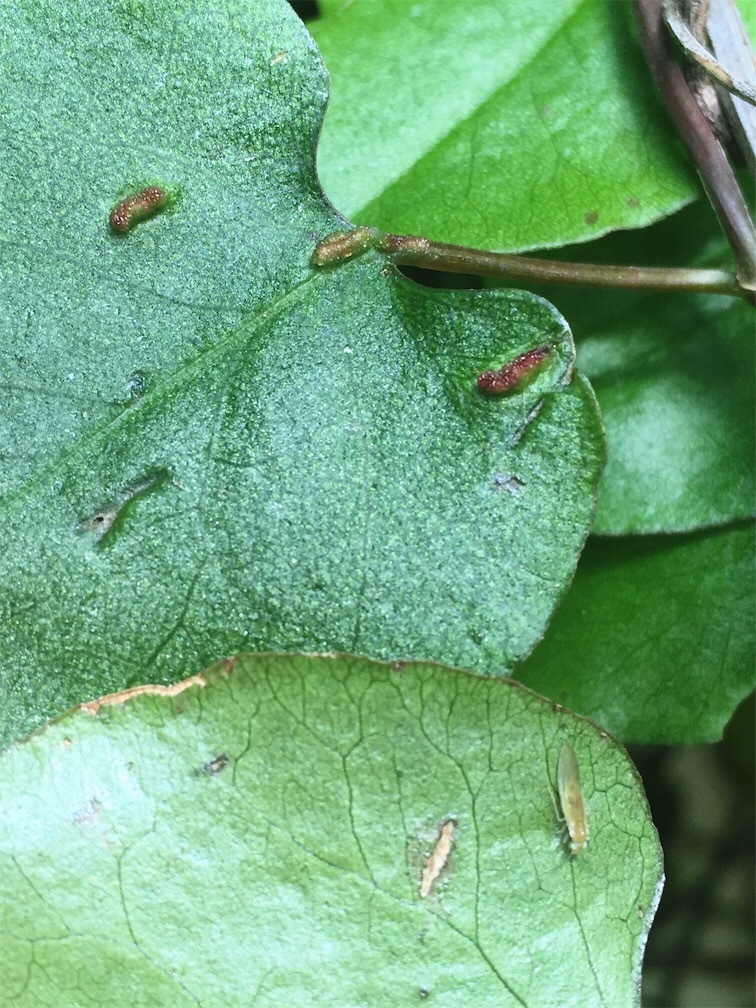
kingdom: Animalia
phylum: Arthropoda
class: Arachnida
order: Trombidiformes
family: Eriophyidae
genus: Aceria
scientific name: Aceria lamii
